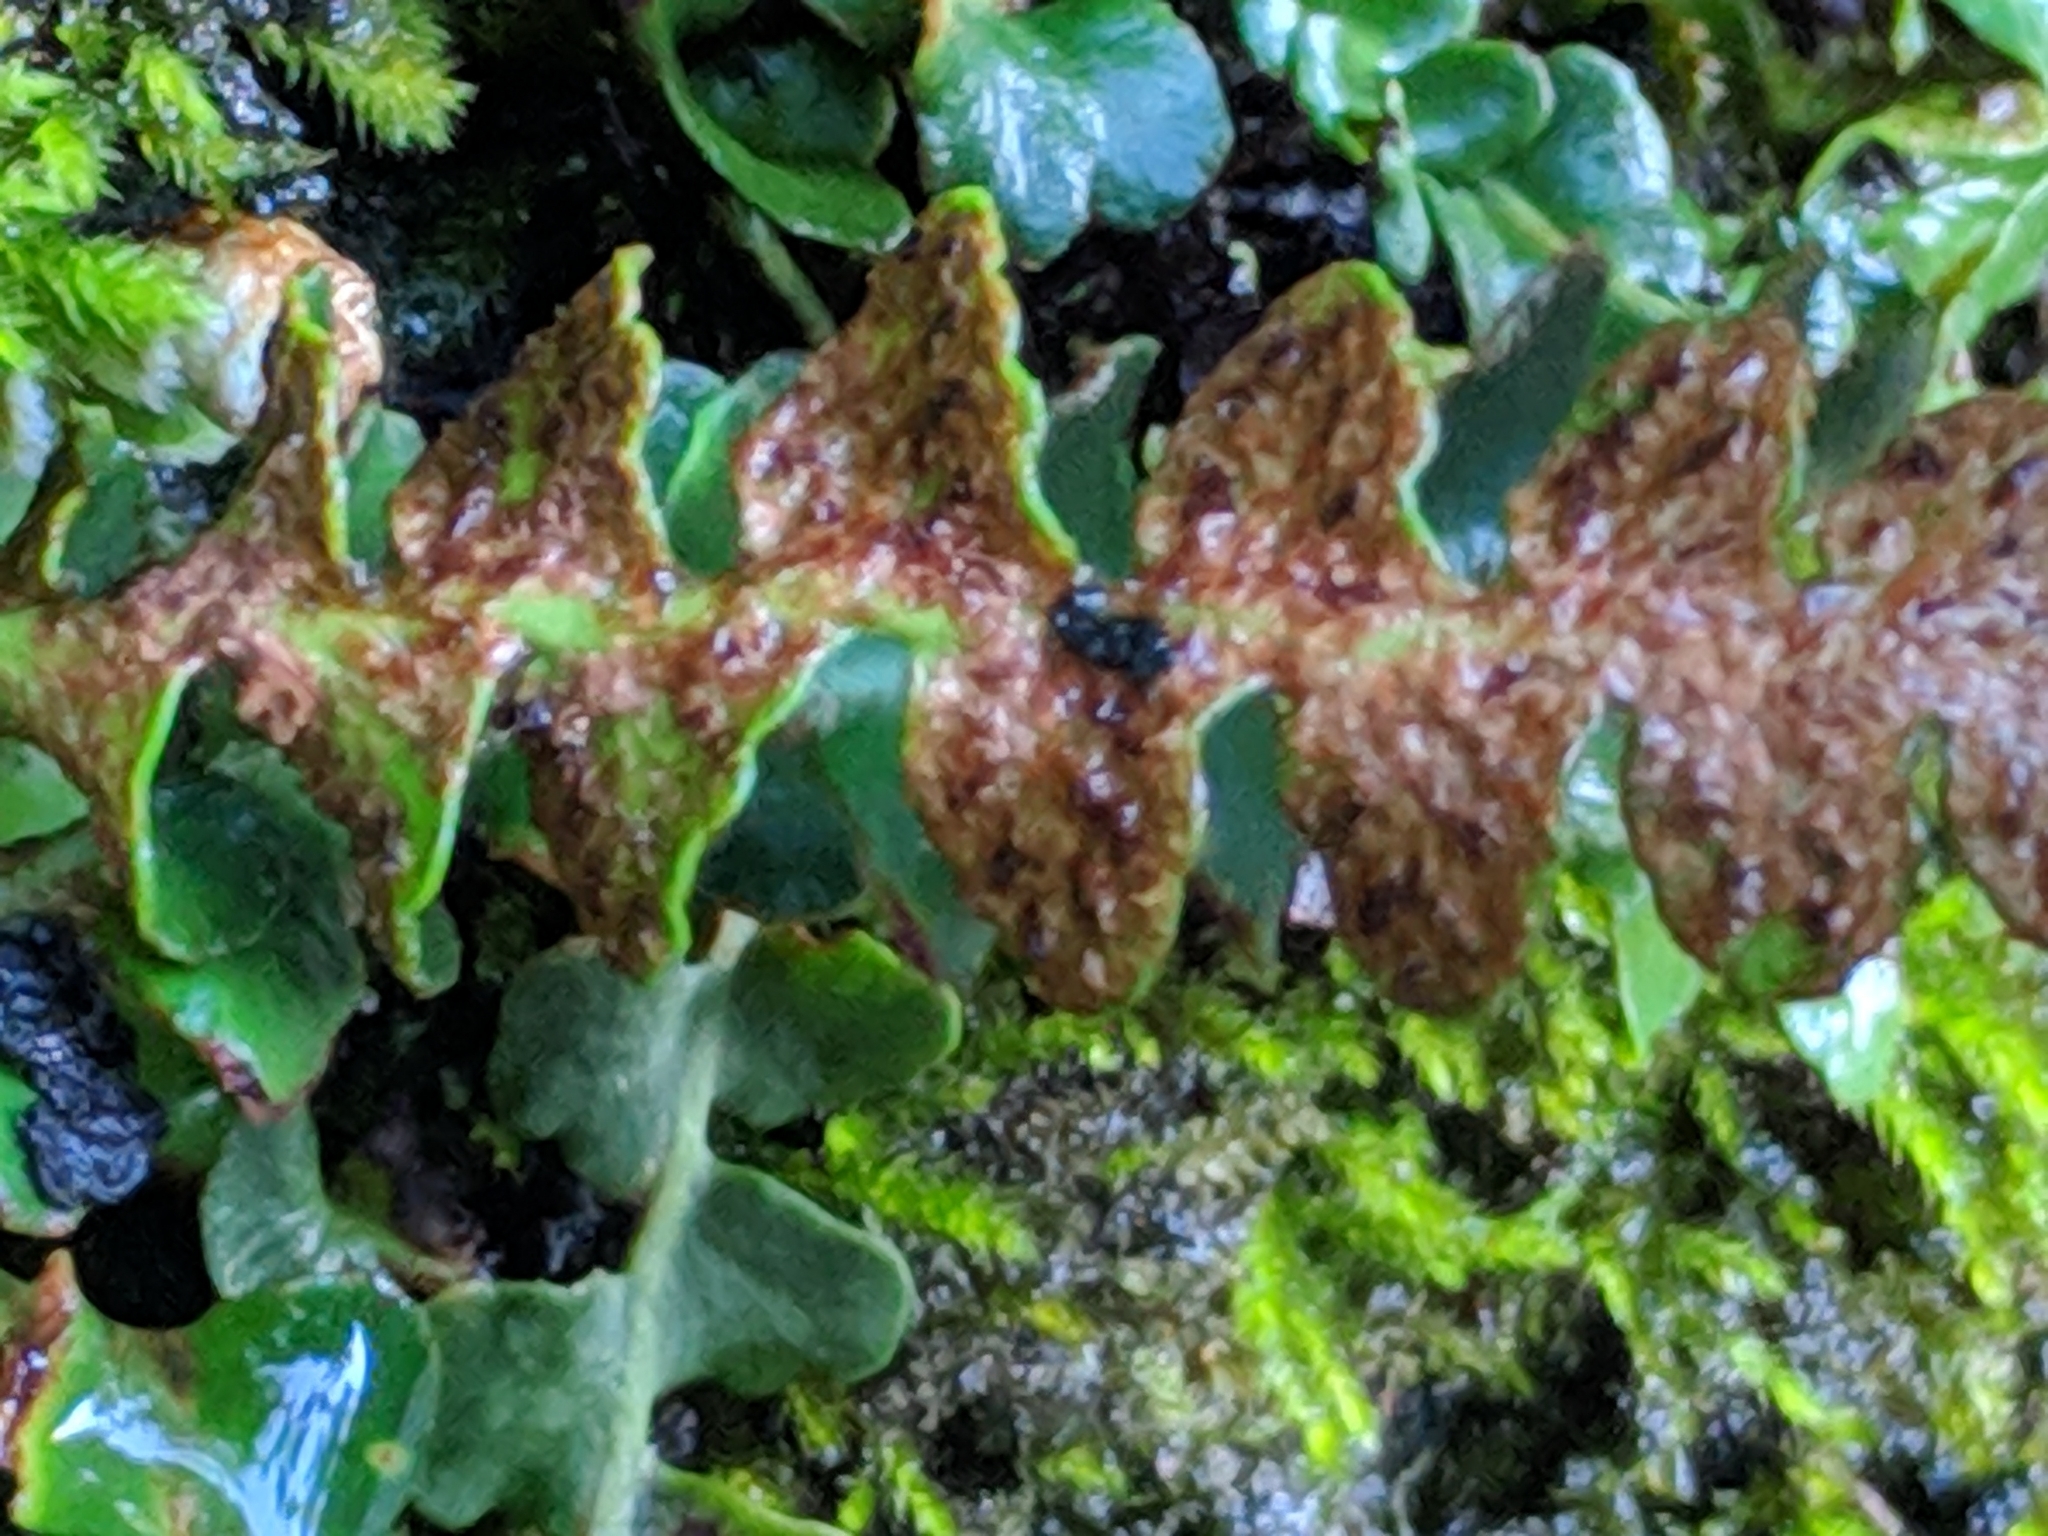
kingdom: Plantae
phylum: Tracheophyta
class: Polypodiopsida
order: Polypodiales
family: Aspleniaceae
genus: Asplenium
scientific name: Asplenium ceterach
